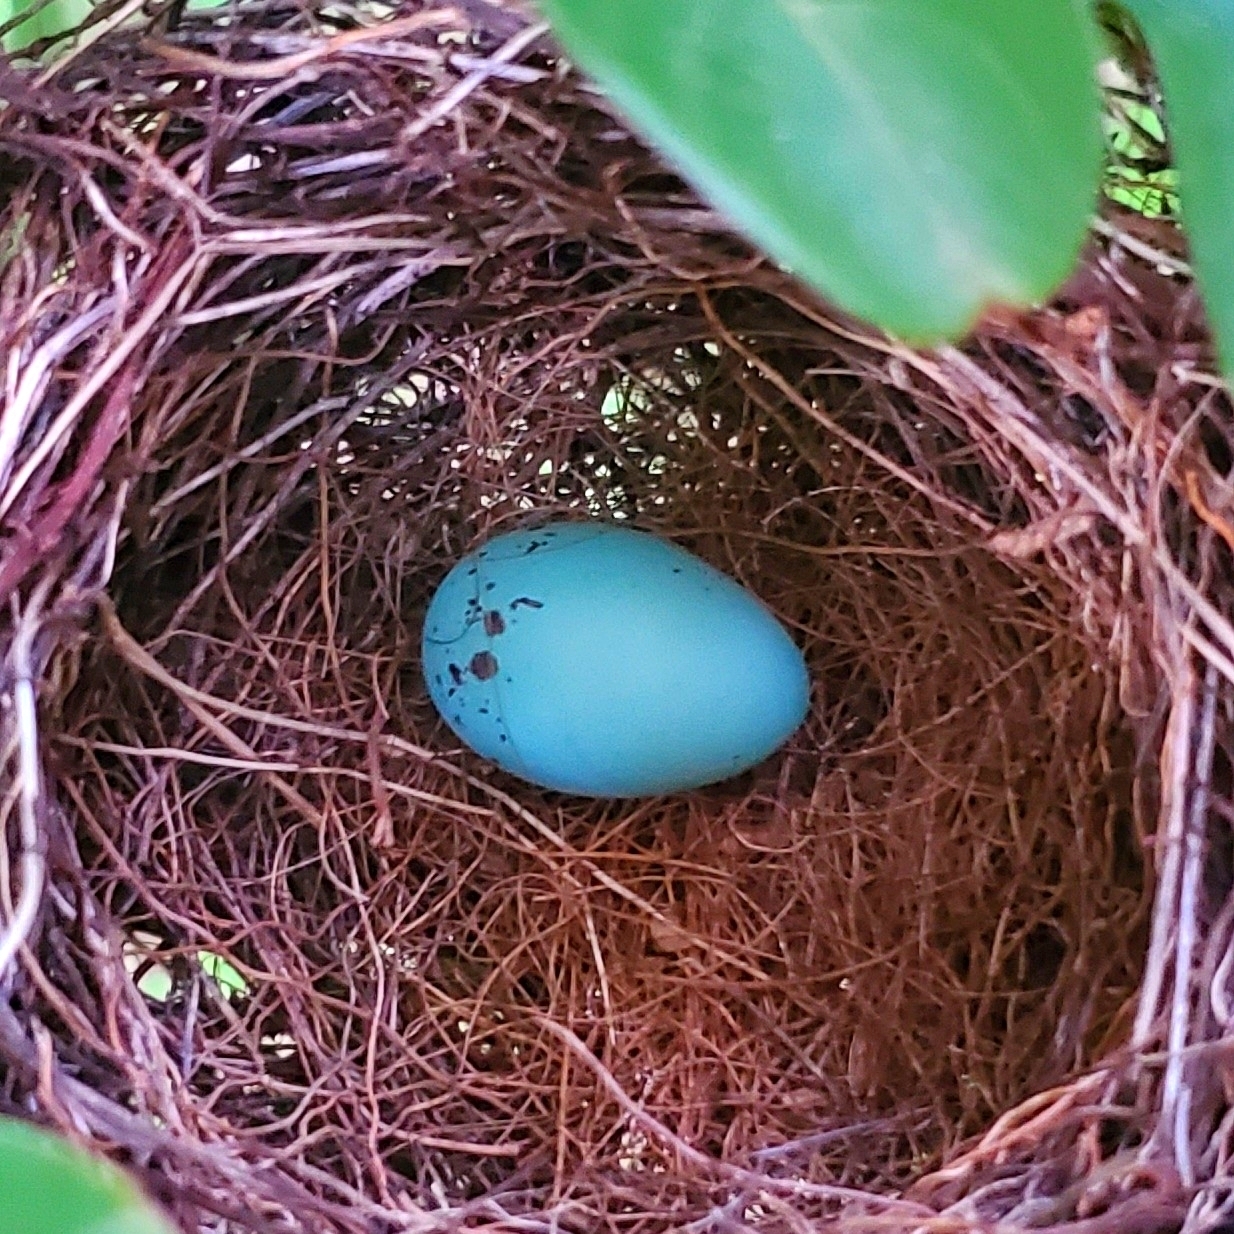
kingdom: Animalia
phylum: Chordata
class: Aves
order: Passeriformes
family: Passerellidae
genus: Spizella
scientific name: Spizella passerina
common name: Chipping sparrow
